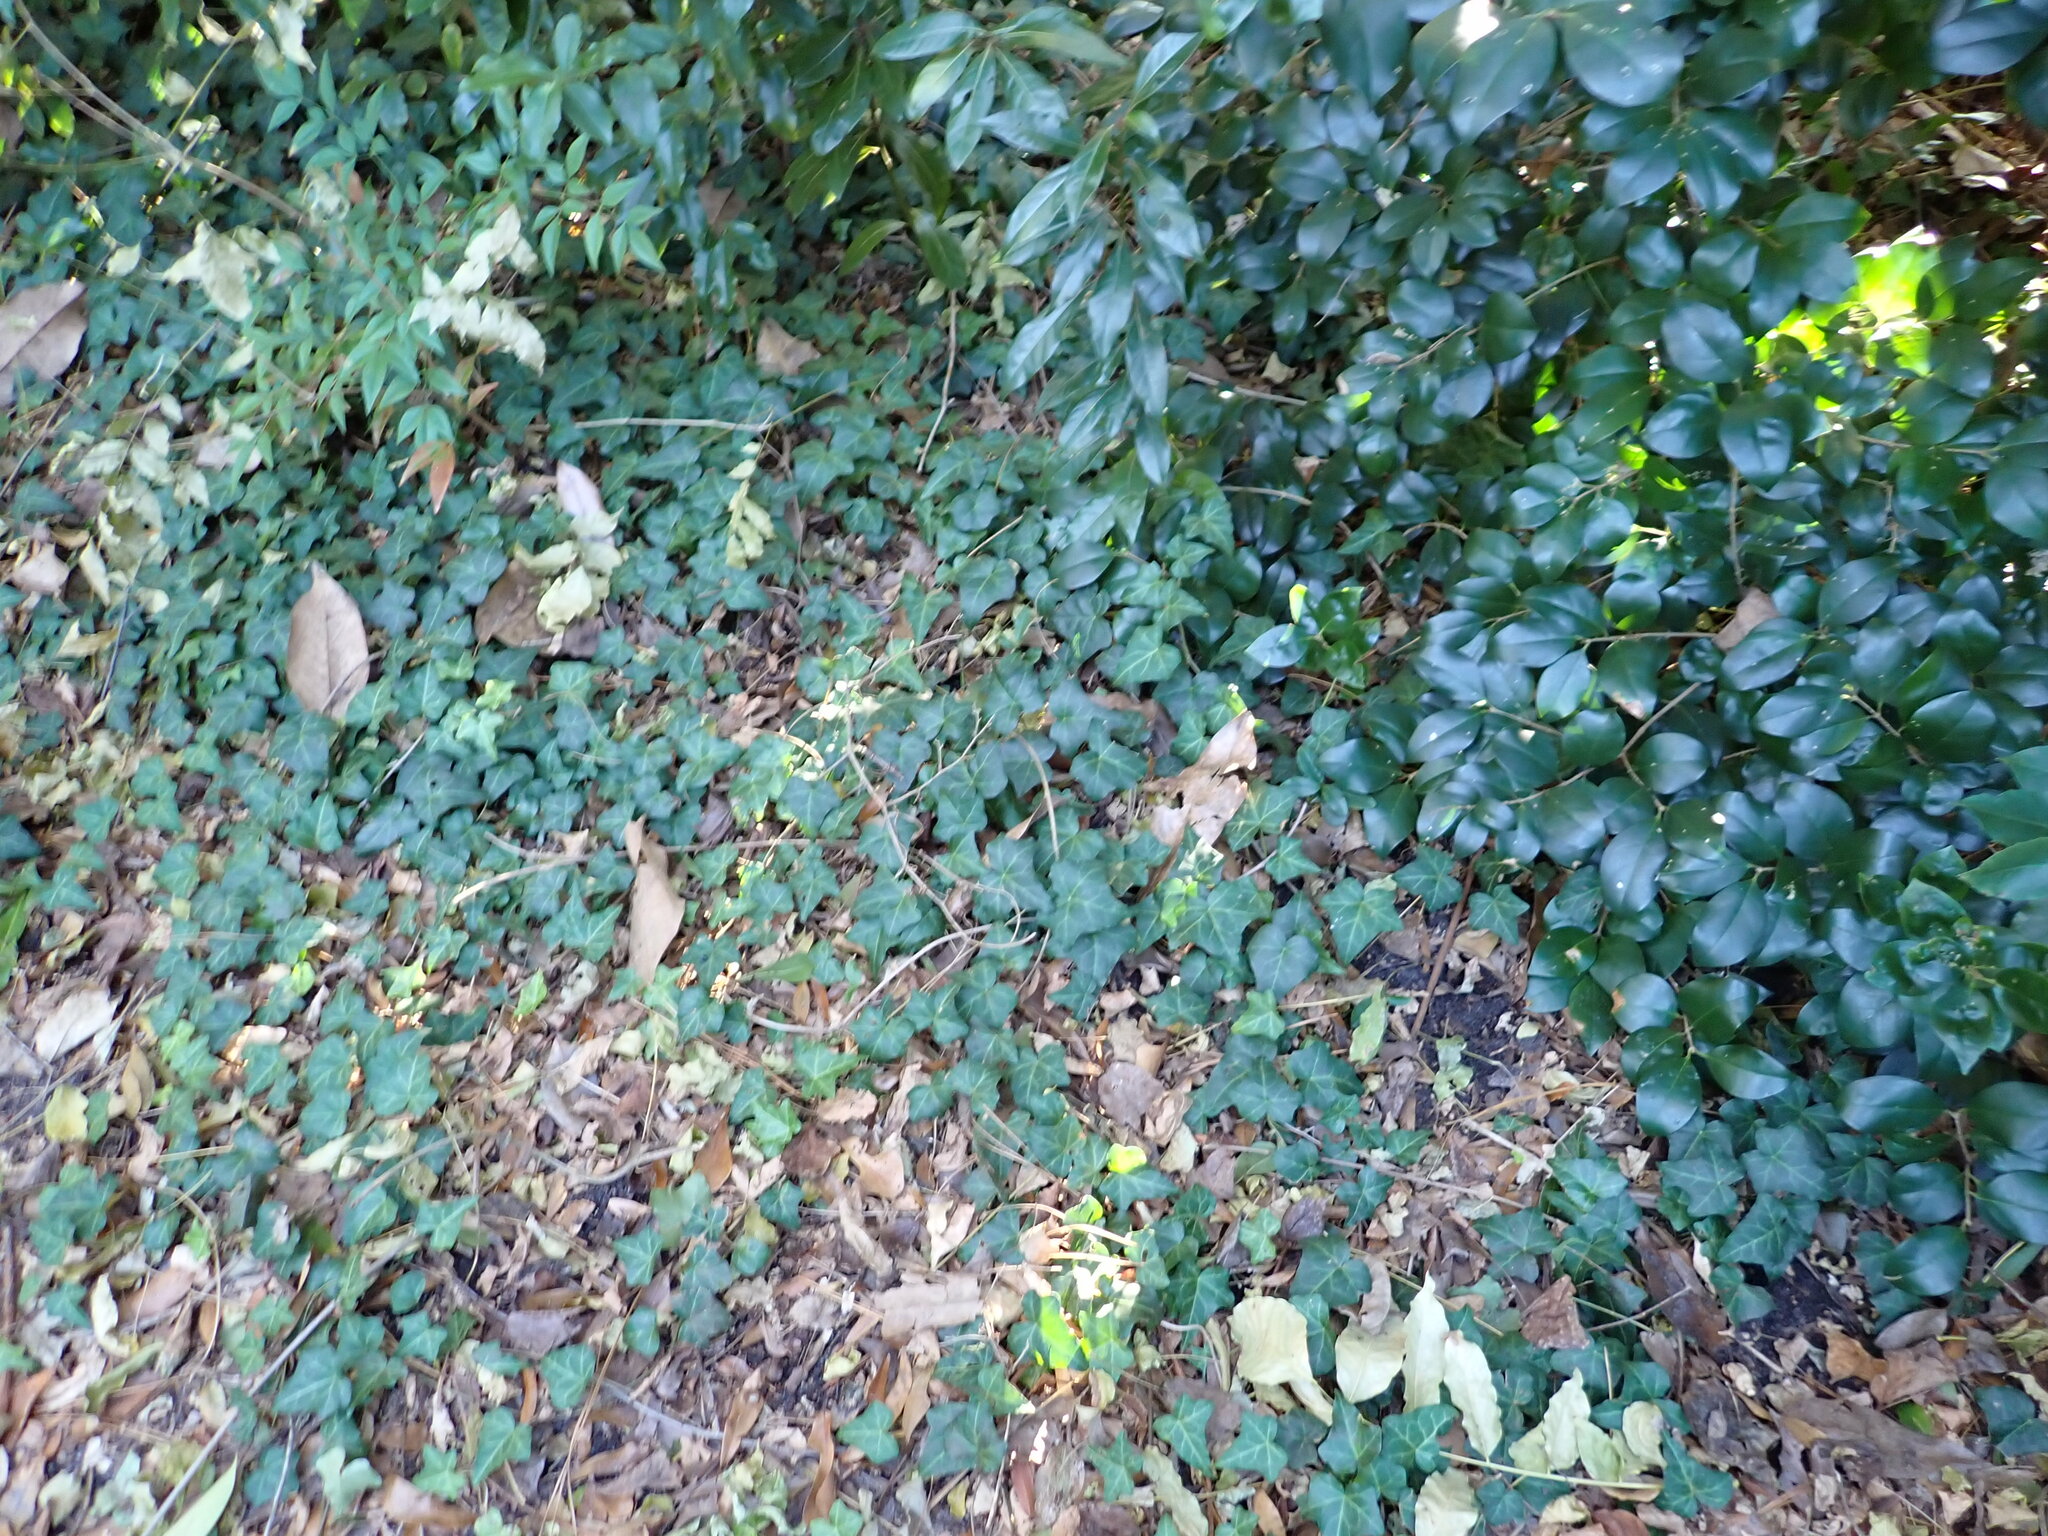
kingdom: Plantae
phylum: Tracheophyta
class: Magnoliopsida
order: Apiales
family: Araliaceae
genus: Hedera
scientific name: Hedera helix
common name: Ivy
